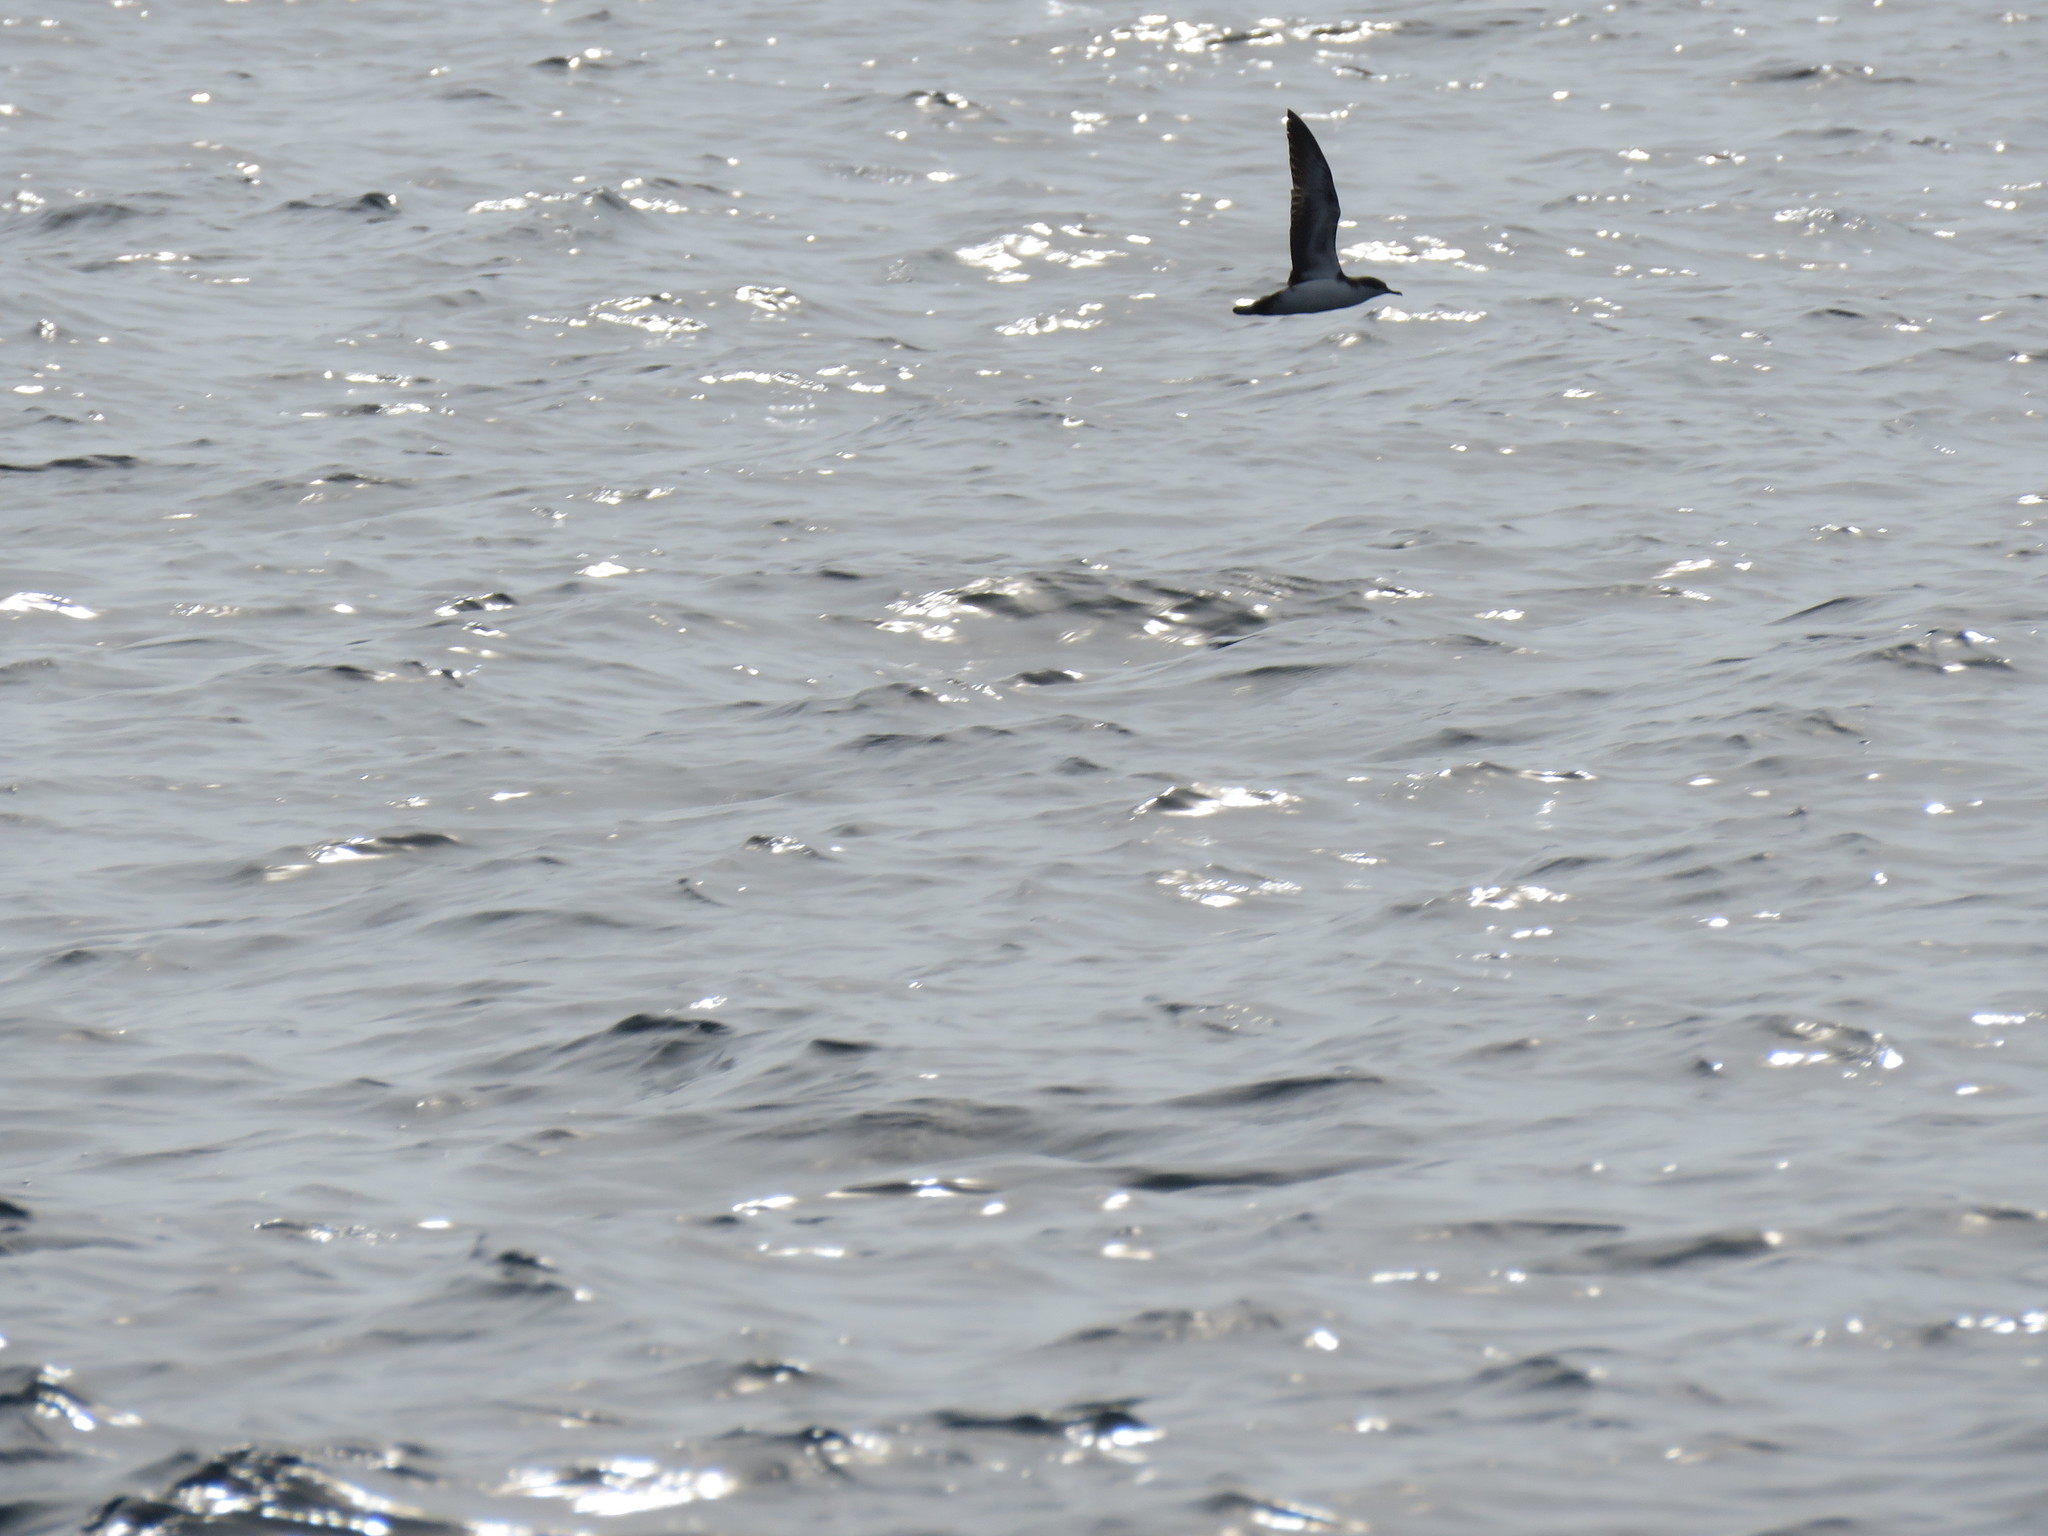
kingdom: Animalia
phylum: Chordata
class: Aves
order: Procellariiformes
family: Procellariidae
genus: Puffinus
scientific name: Puffinus subalaris
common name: Galapagos shearwater
